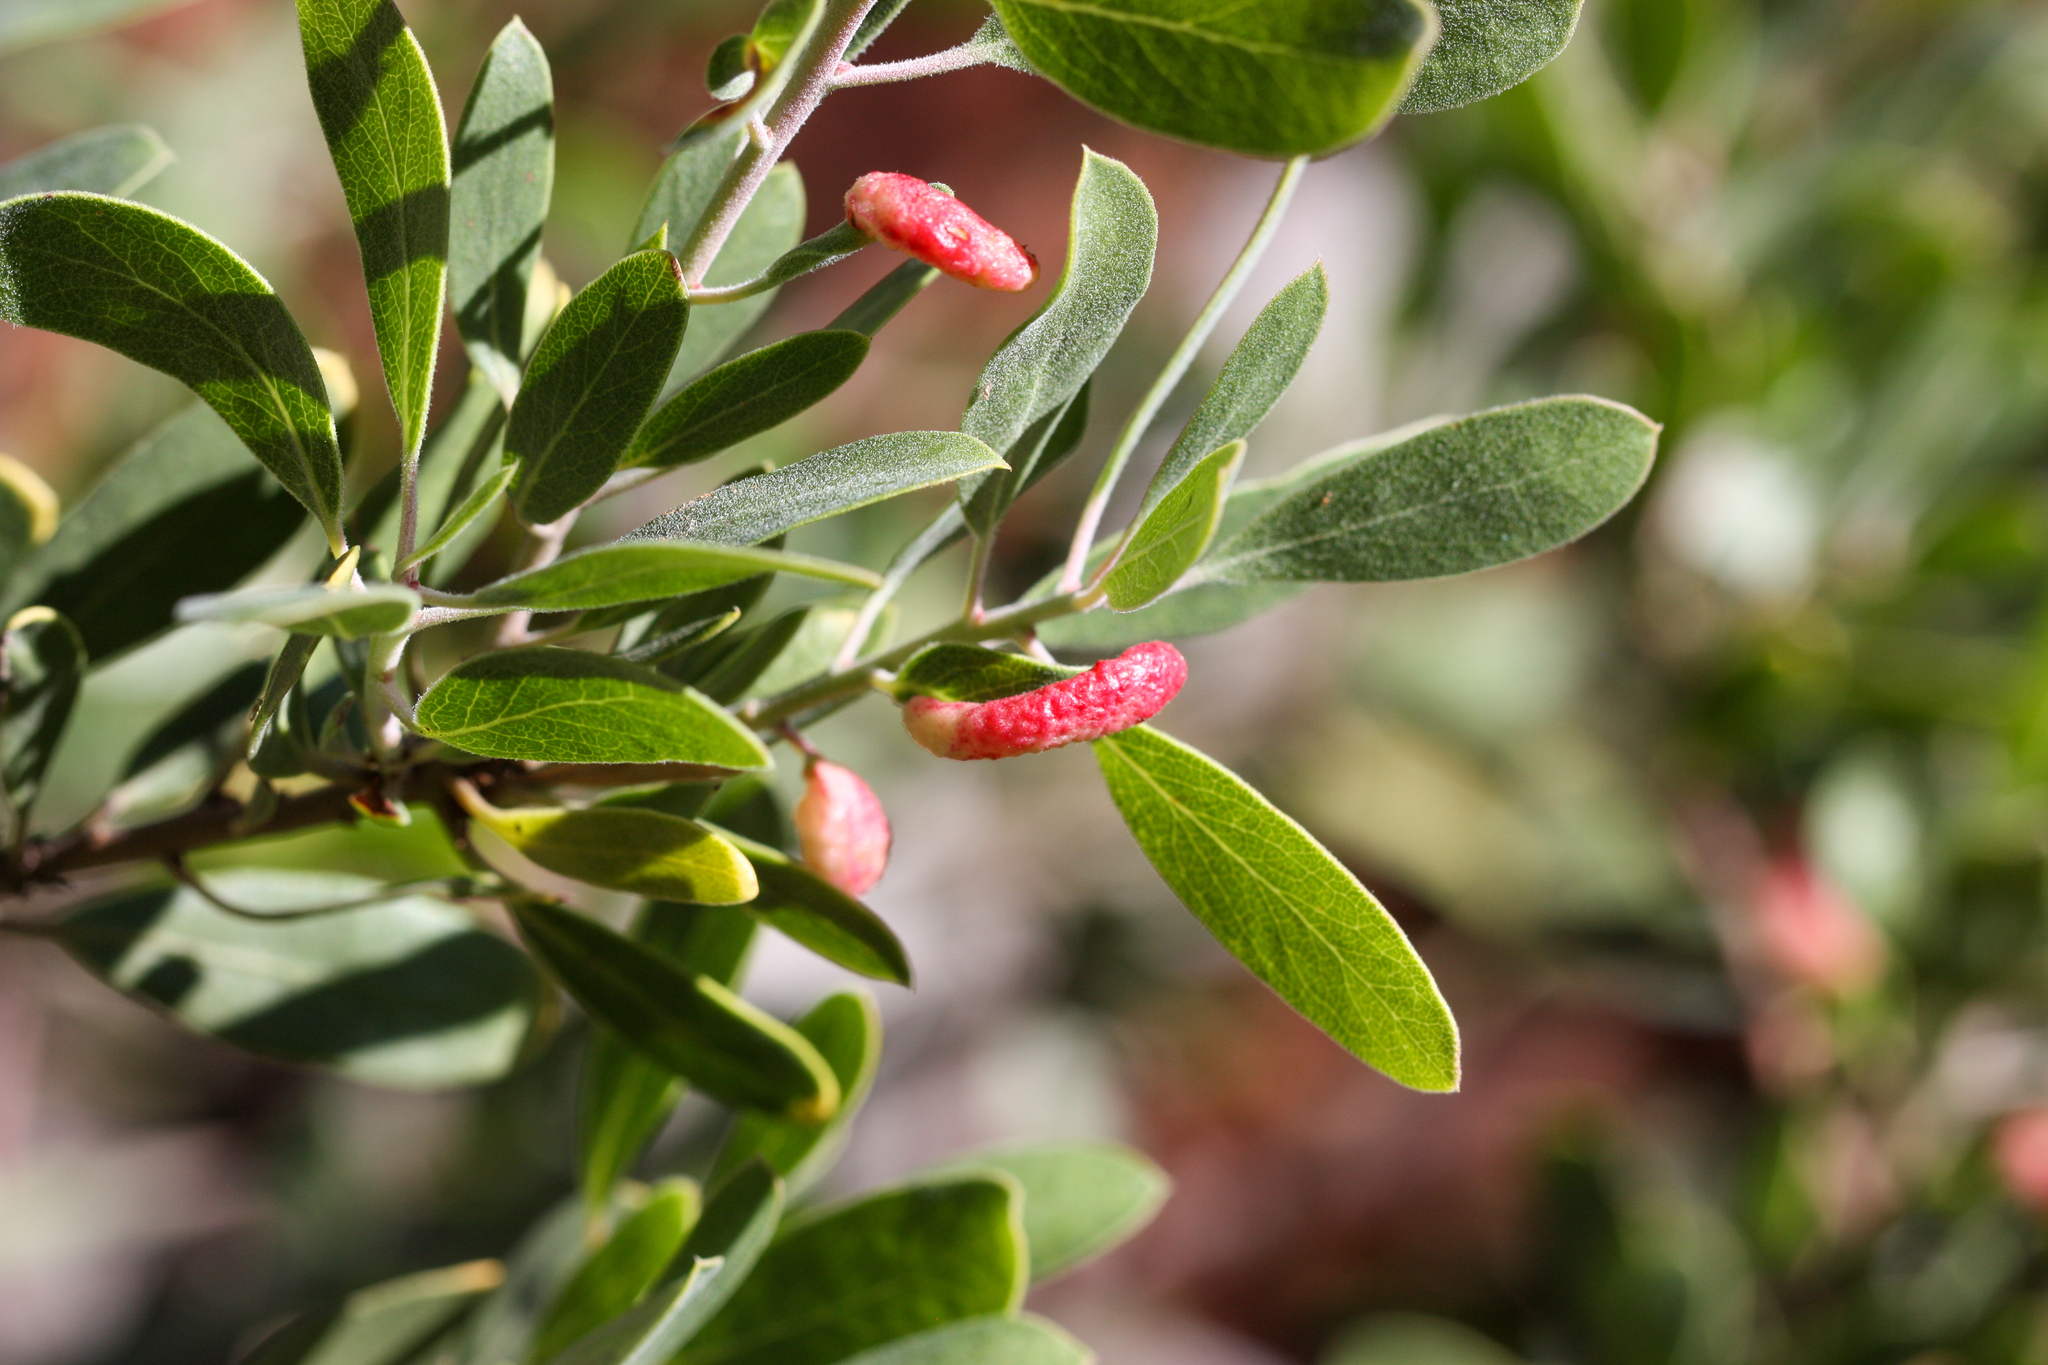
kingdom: Animalia
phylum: Arthropoda
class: Insecta
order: Hemiptera
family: Aphididae
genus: Tamalia
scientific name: Tamalia coweni
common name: Manzanita leafgall aphid
